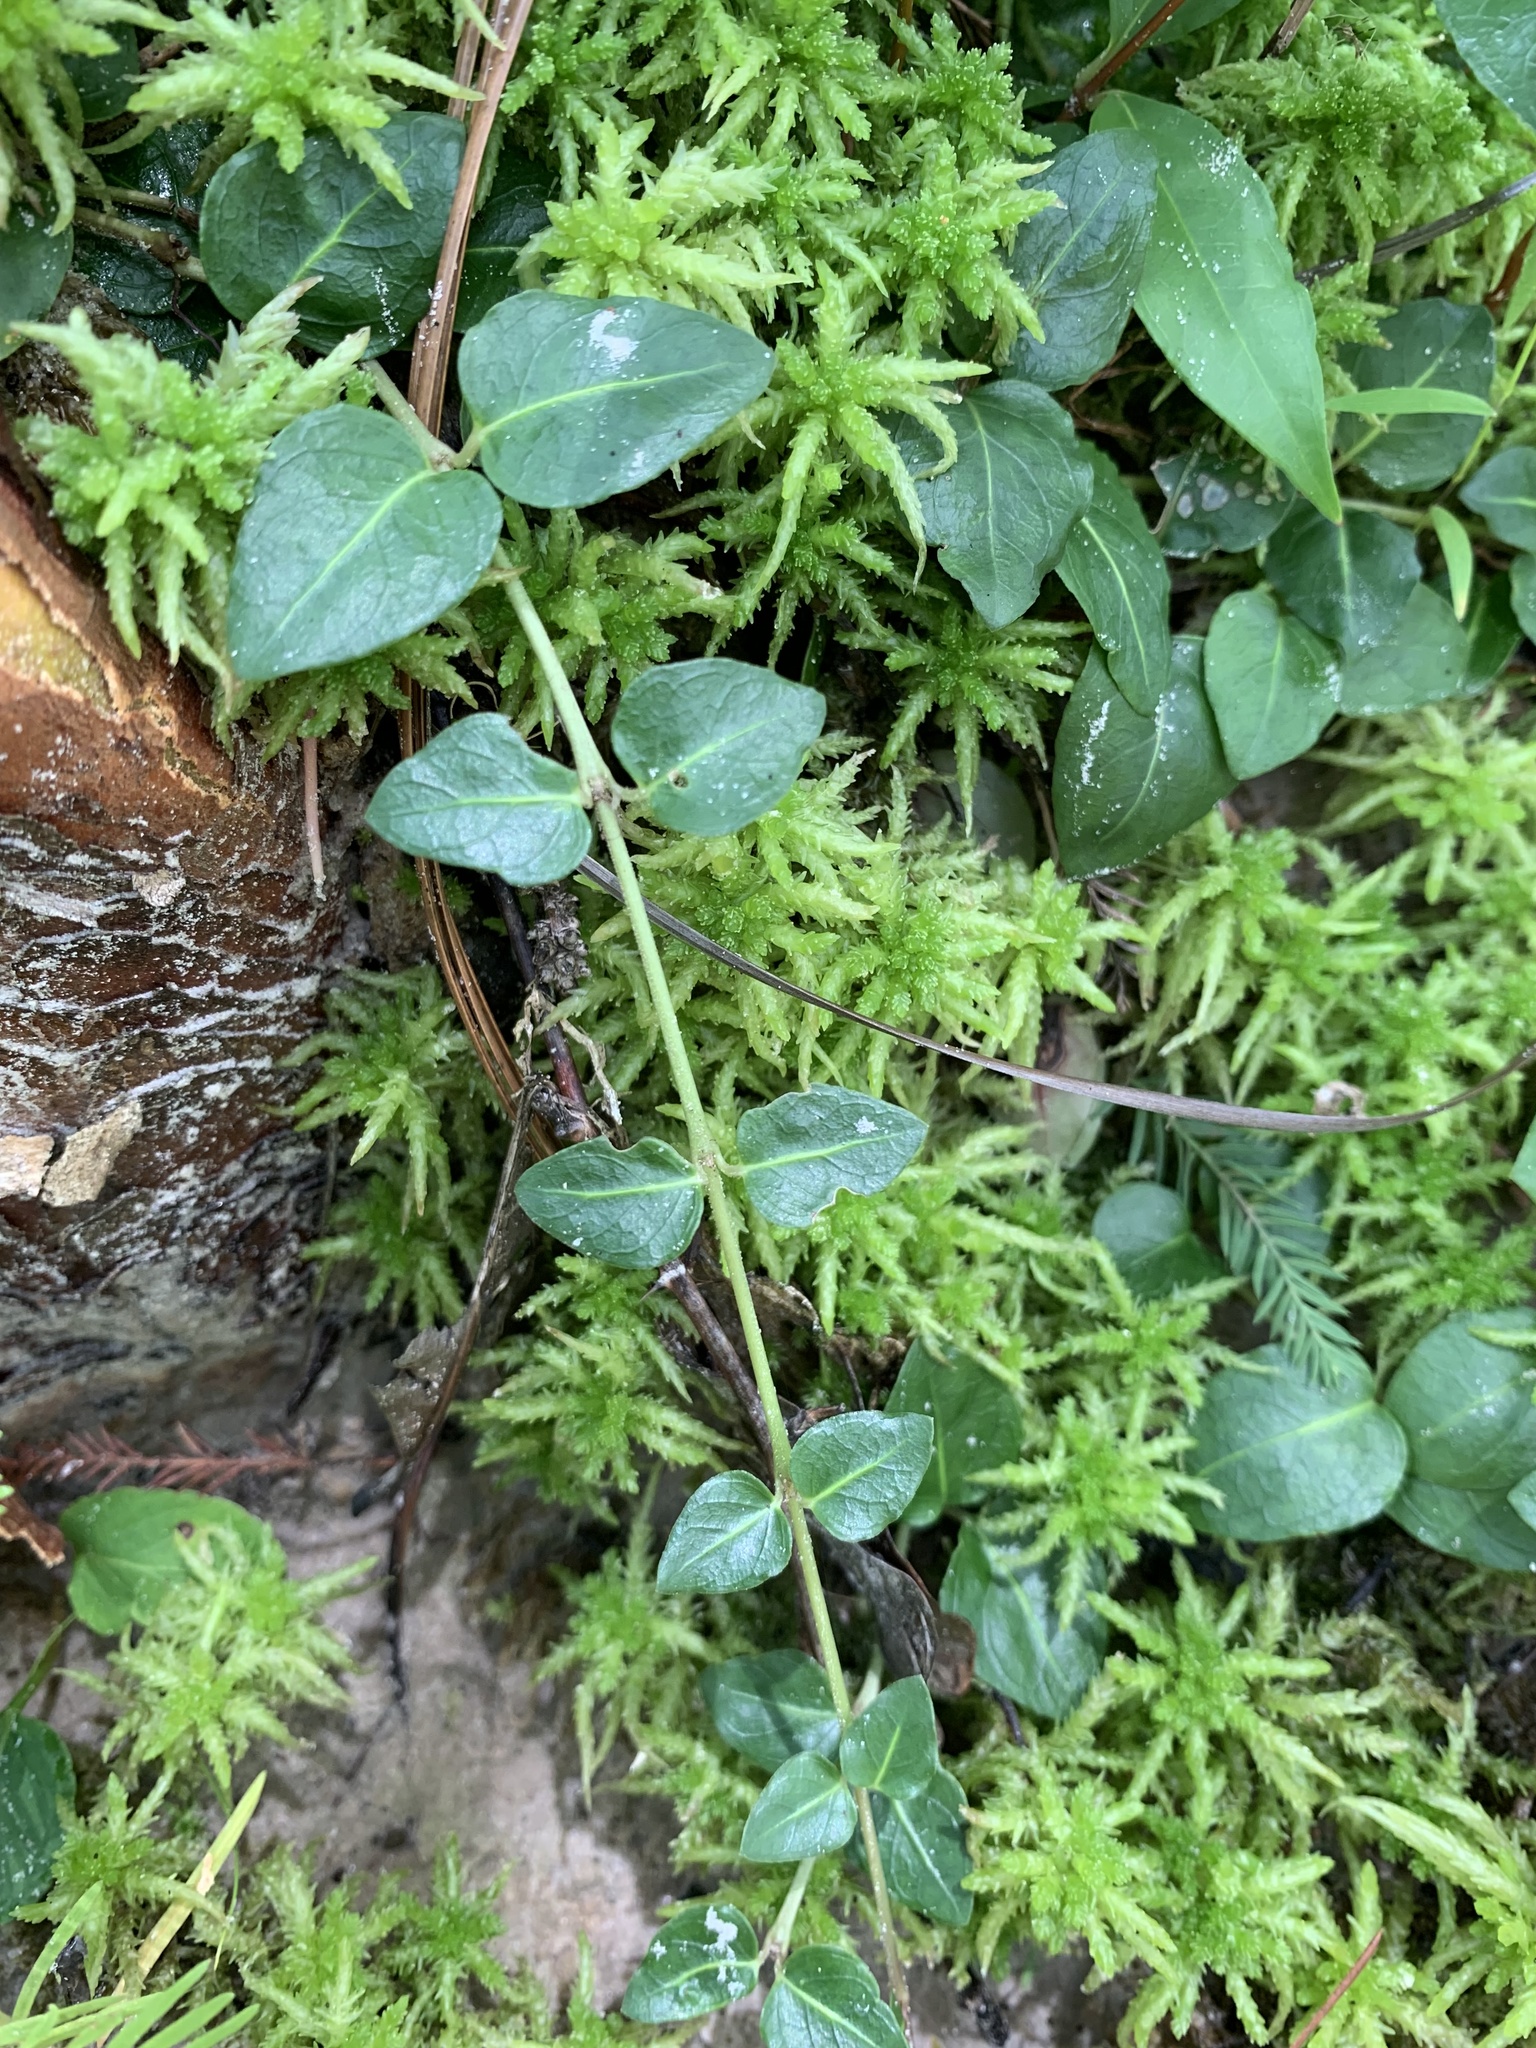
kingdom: Plantae
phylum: Tracheophyta
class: Magnoliopsida
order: Gentianales
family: Rubiaceae
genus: Mitchella
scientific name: Mitchella repens
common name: Partridge-berry
